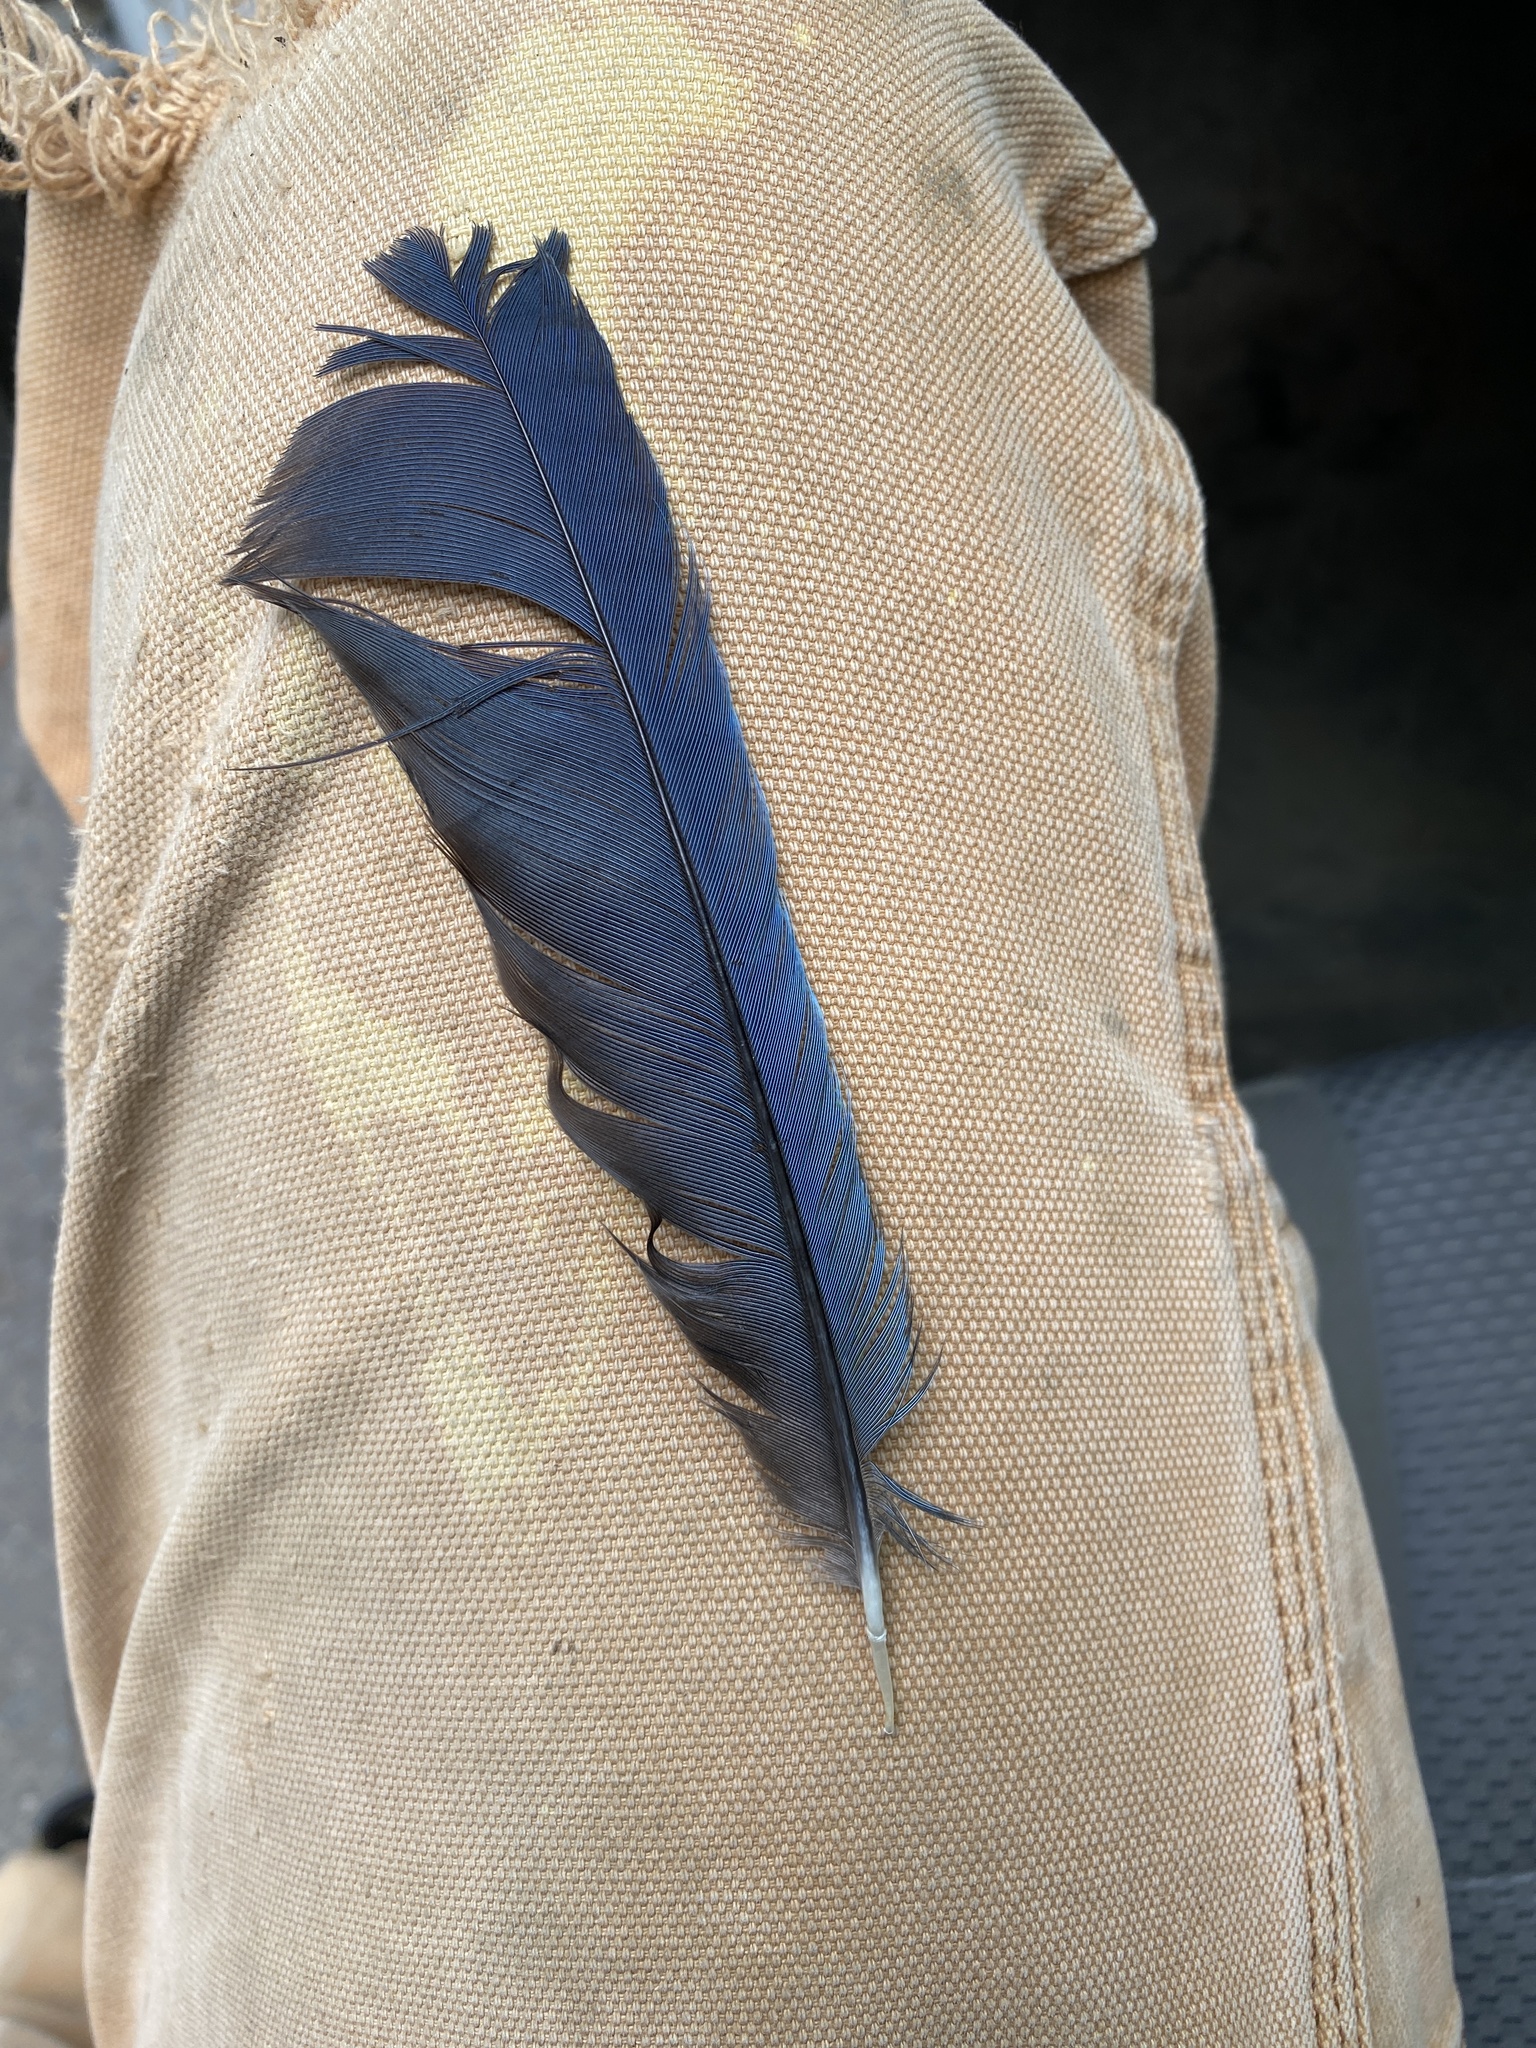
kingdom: Animalia
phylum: Chordata
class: Aves
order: Passeriformes
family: Corvidae
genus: Cyanocitta
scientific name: Cyanocitta stelleri
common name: Steller's jay
